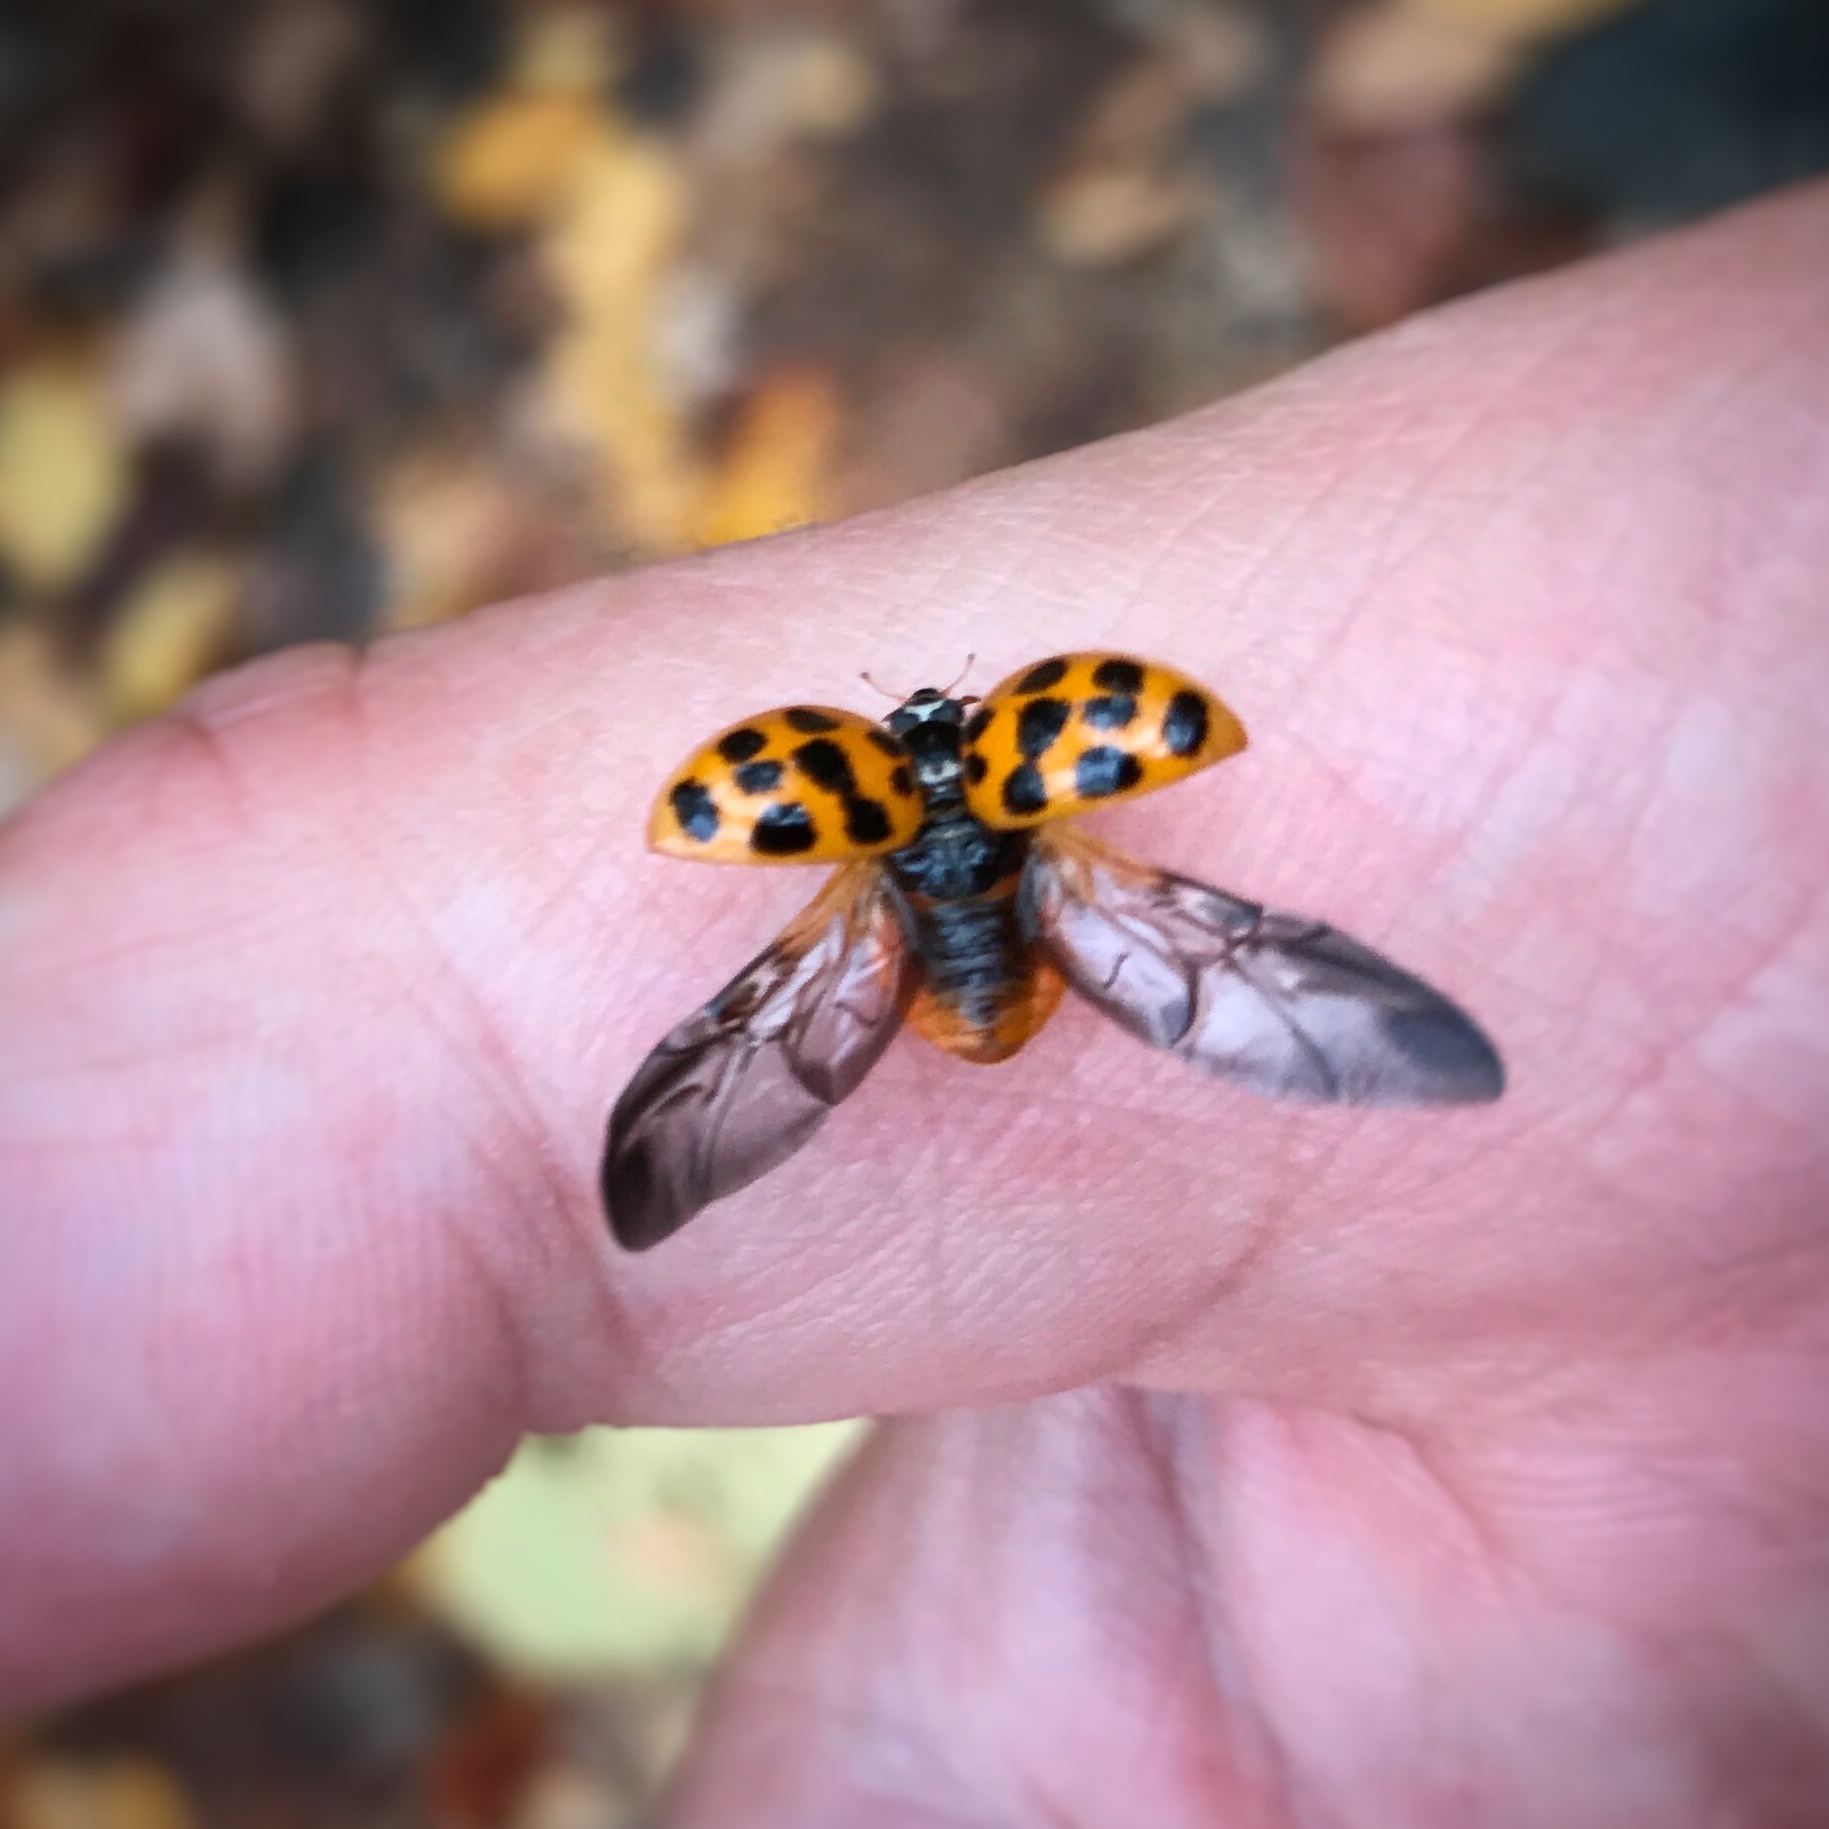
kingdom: Animalia
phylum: Arthropoda
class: Insecta
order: Coleoptera
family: Coccinellidae
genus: Harmonia
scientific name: Harmonia axyridis
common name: Harlequin ladybird
